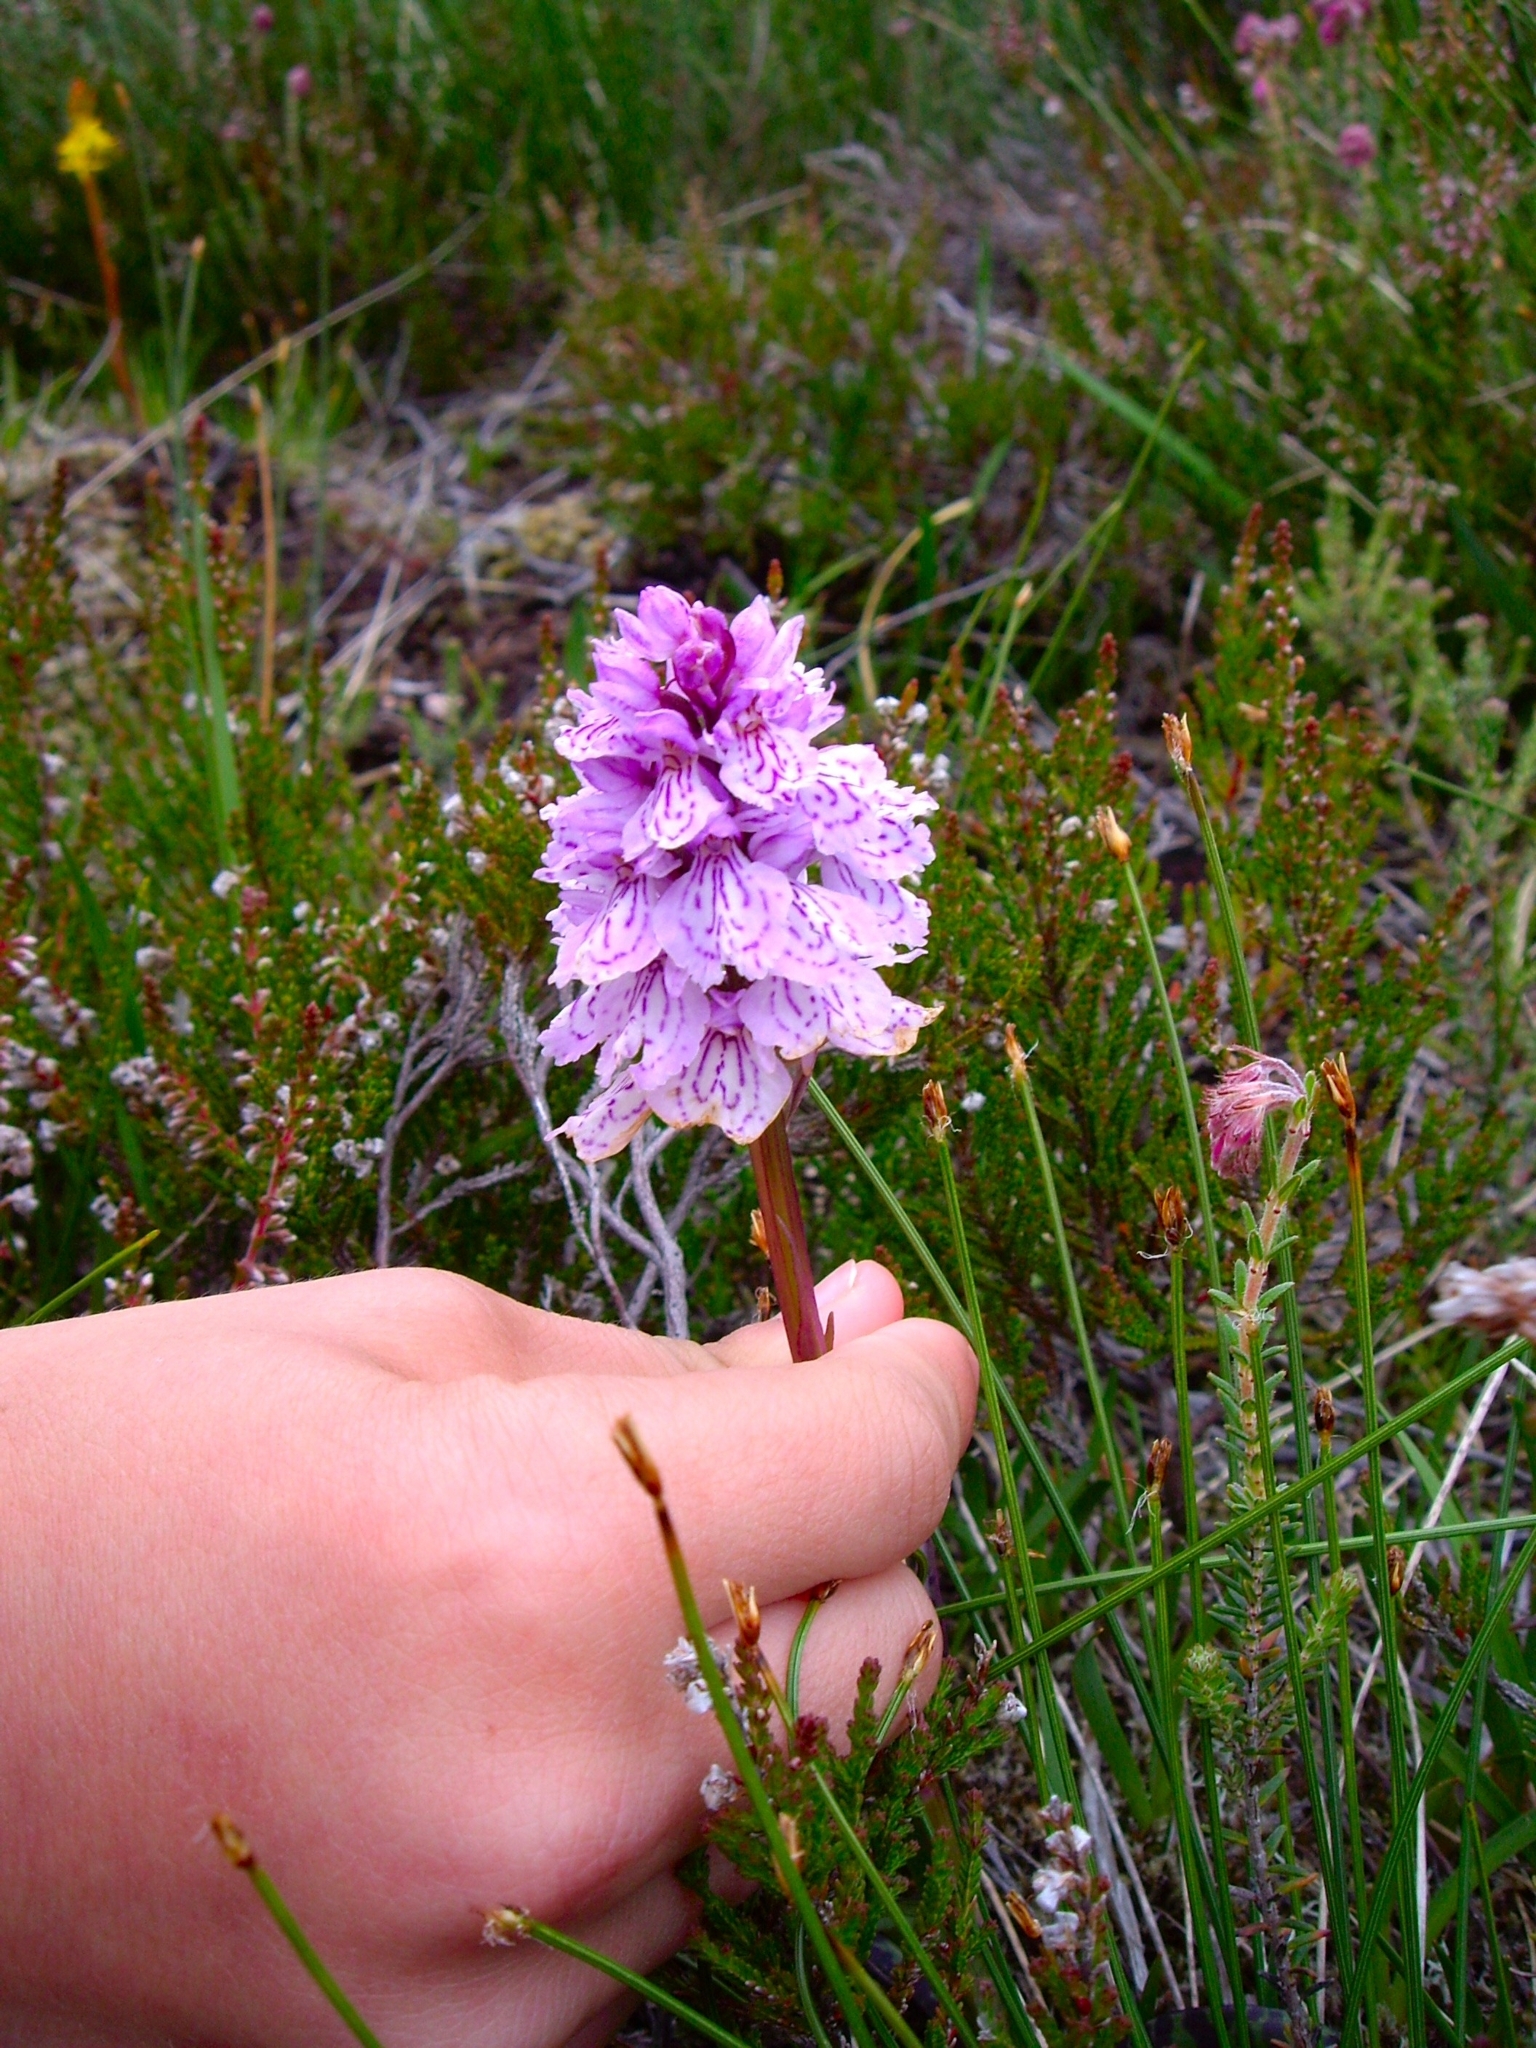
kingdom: Plantae
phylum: Tracheophyta
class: Liliopsida
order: Asparagales
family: Orchidaceae
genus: Dactylorhiza
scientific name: Dactylorhiza maculata
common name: Heath spotted-orchid
